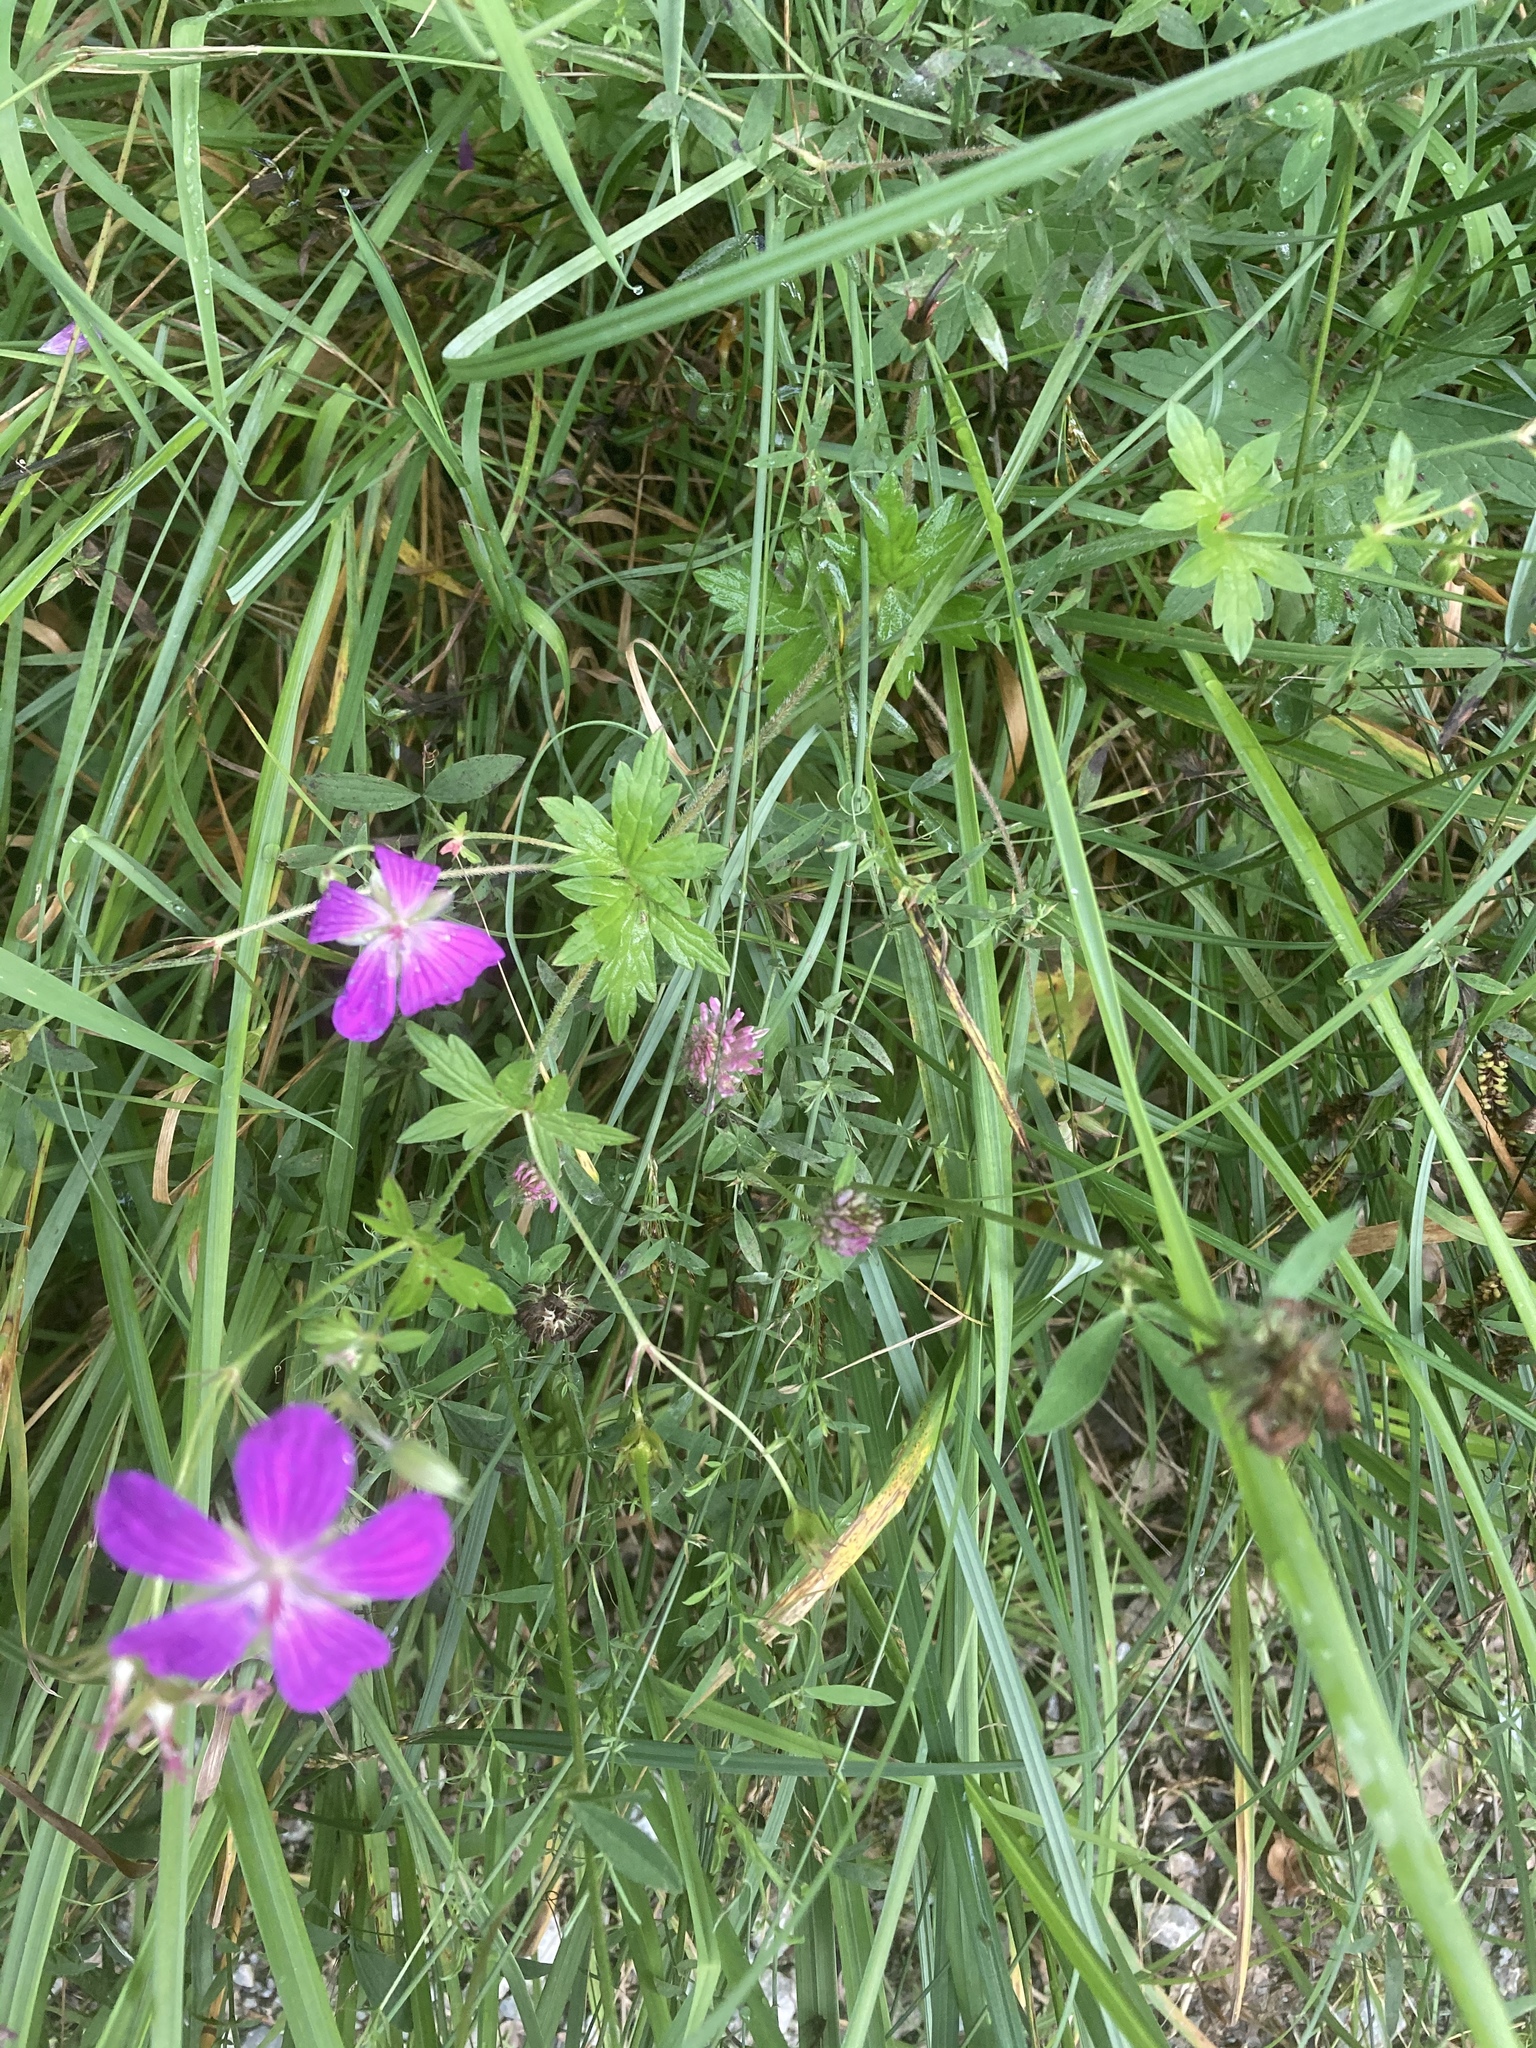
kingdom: Plantae
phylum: Tracheophyta
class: Magnoliopsida
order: Geraniales
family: Geraniaceae
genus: Geranium
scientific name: Geranium palustre
